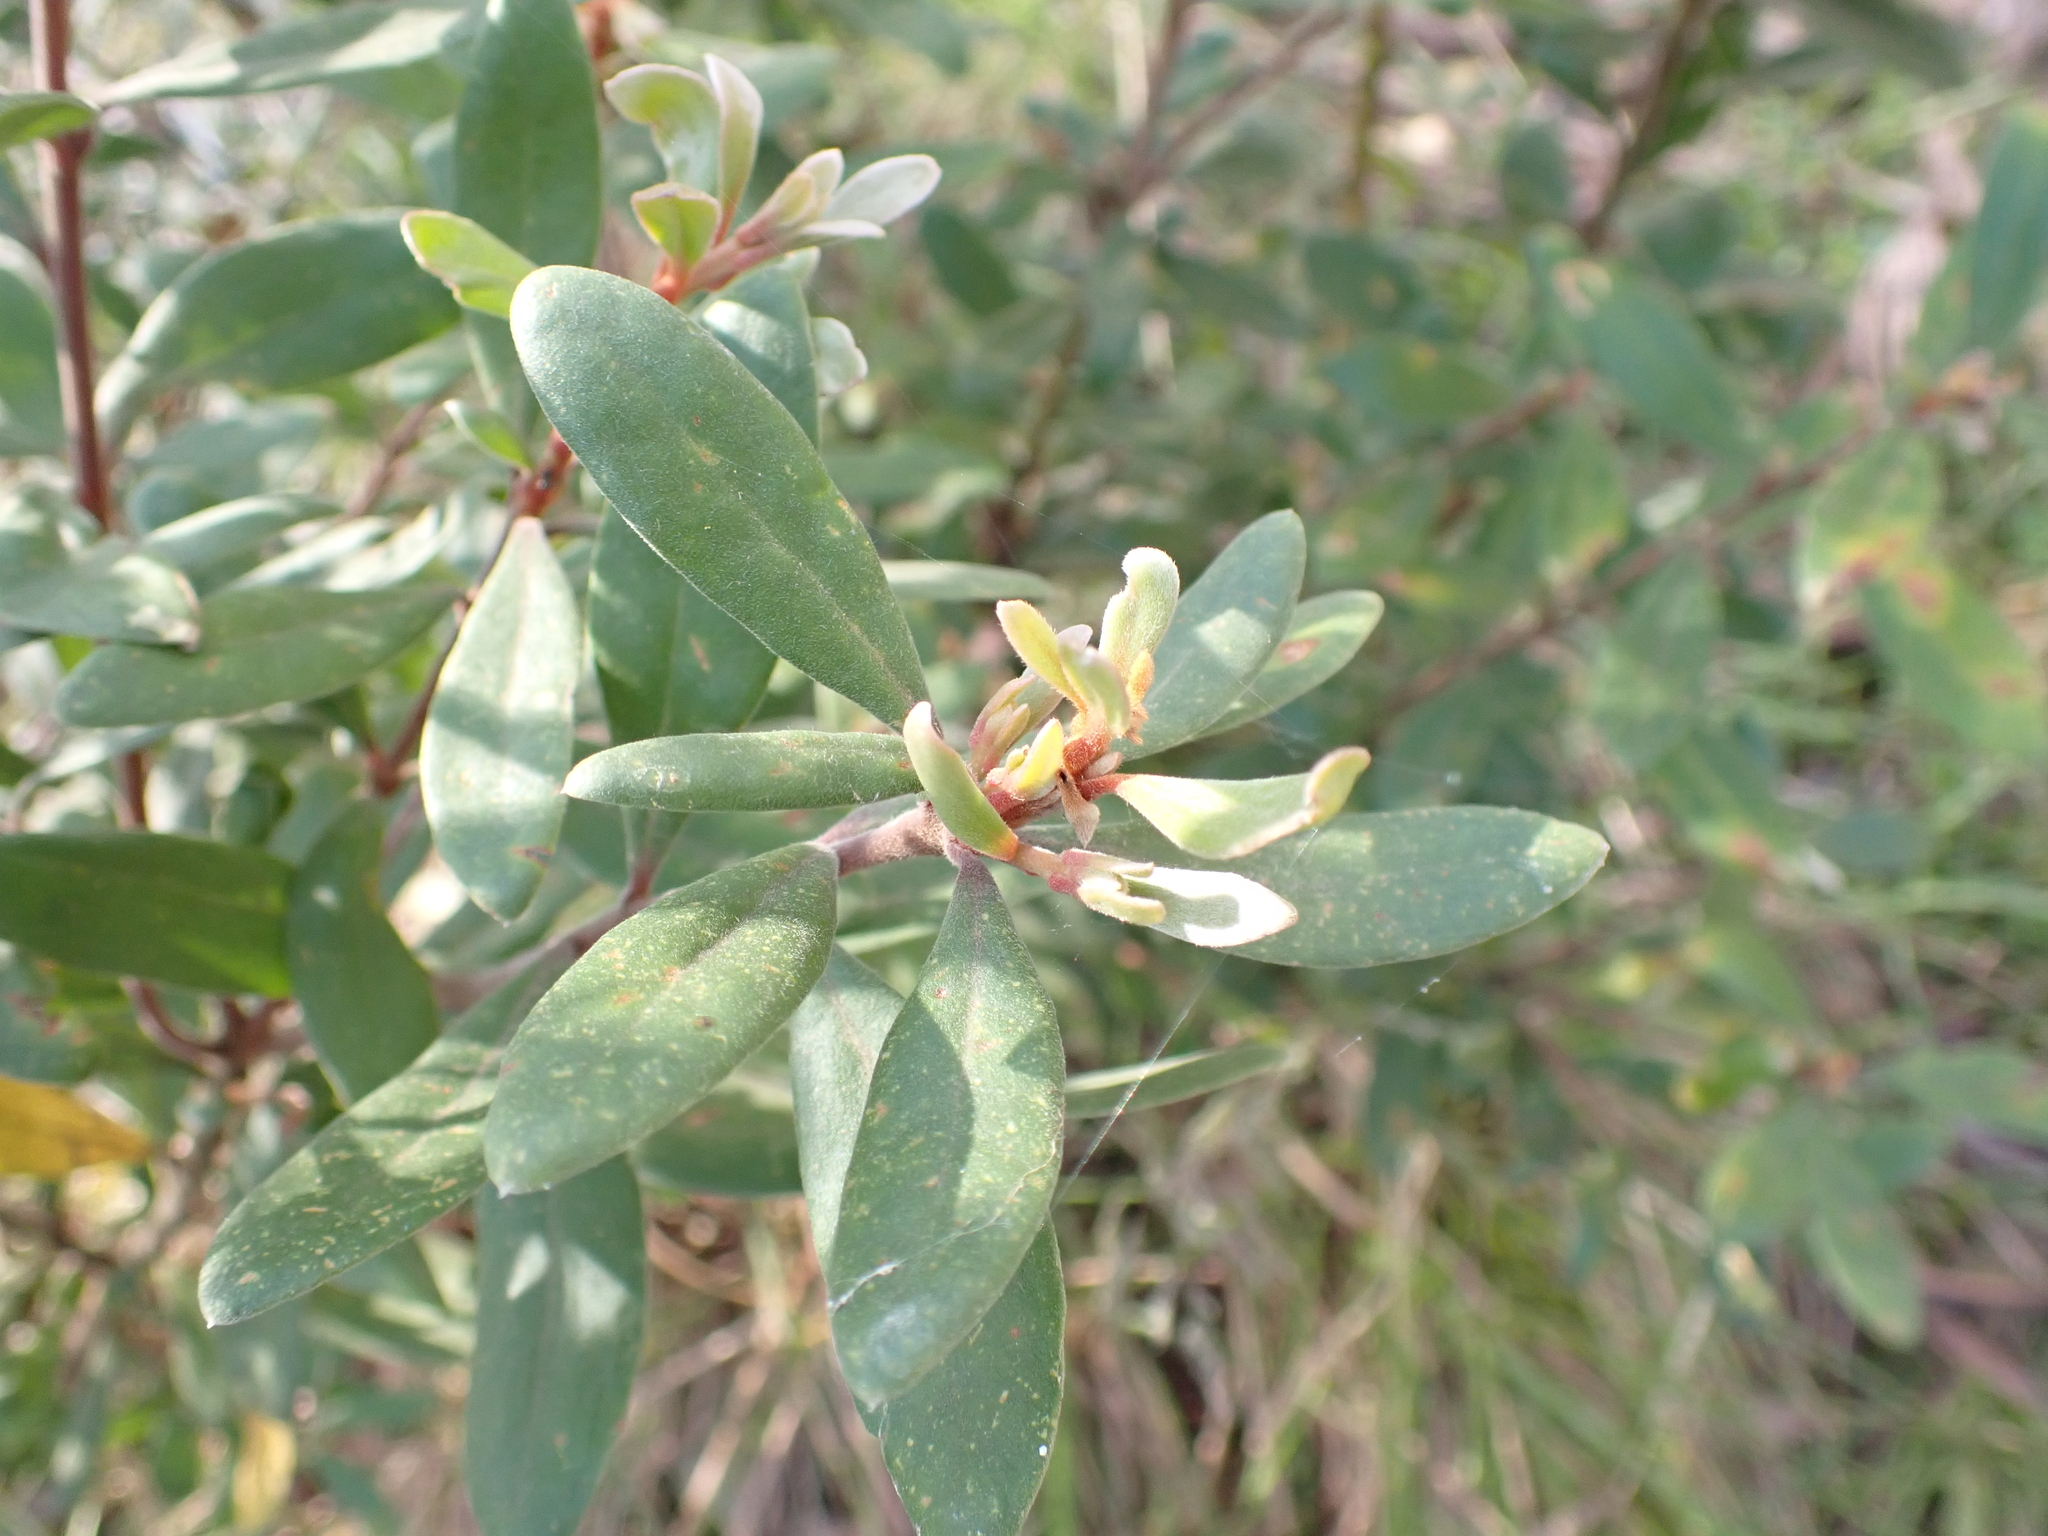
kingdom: Plantae
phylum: Tracheophyta
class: Magnoliopsida
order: Proteales
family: Proteaceae
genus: Persoonia
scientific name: Persoonia subvelutina
